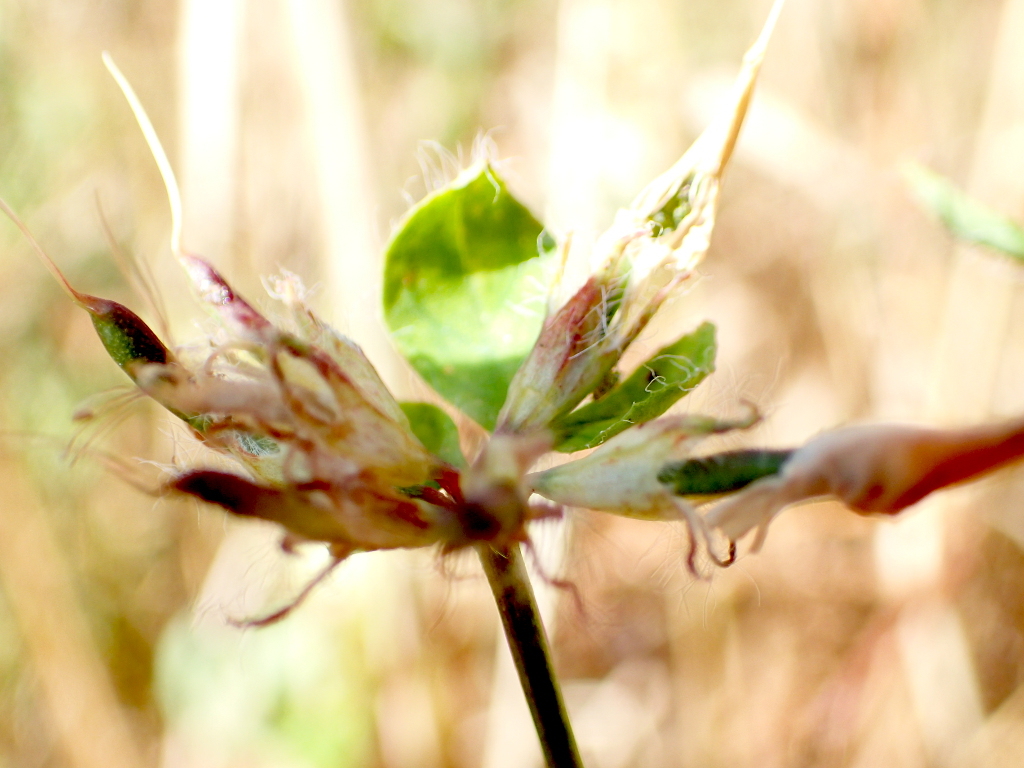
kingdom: Plantae
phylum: Tracheophyta
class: Magnoliopsida
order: Fabales
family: Fabaceae
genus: Lotus
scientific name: Lotus pedunculatus
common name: Greater birdsfoot-trefoil
